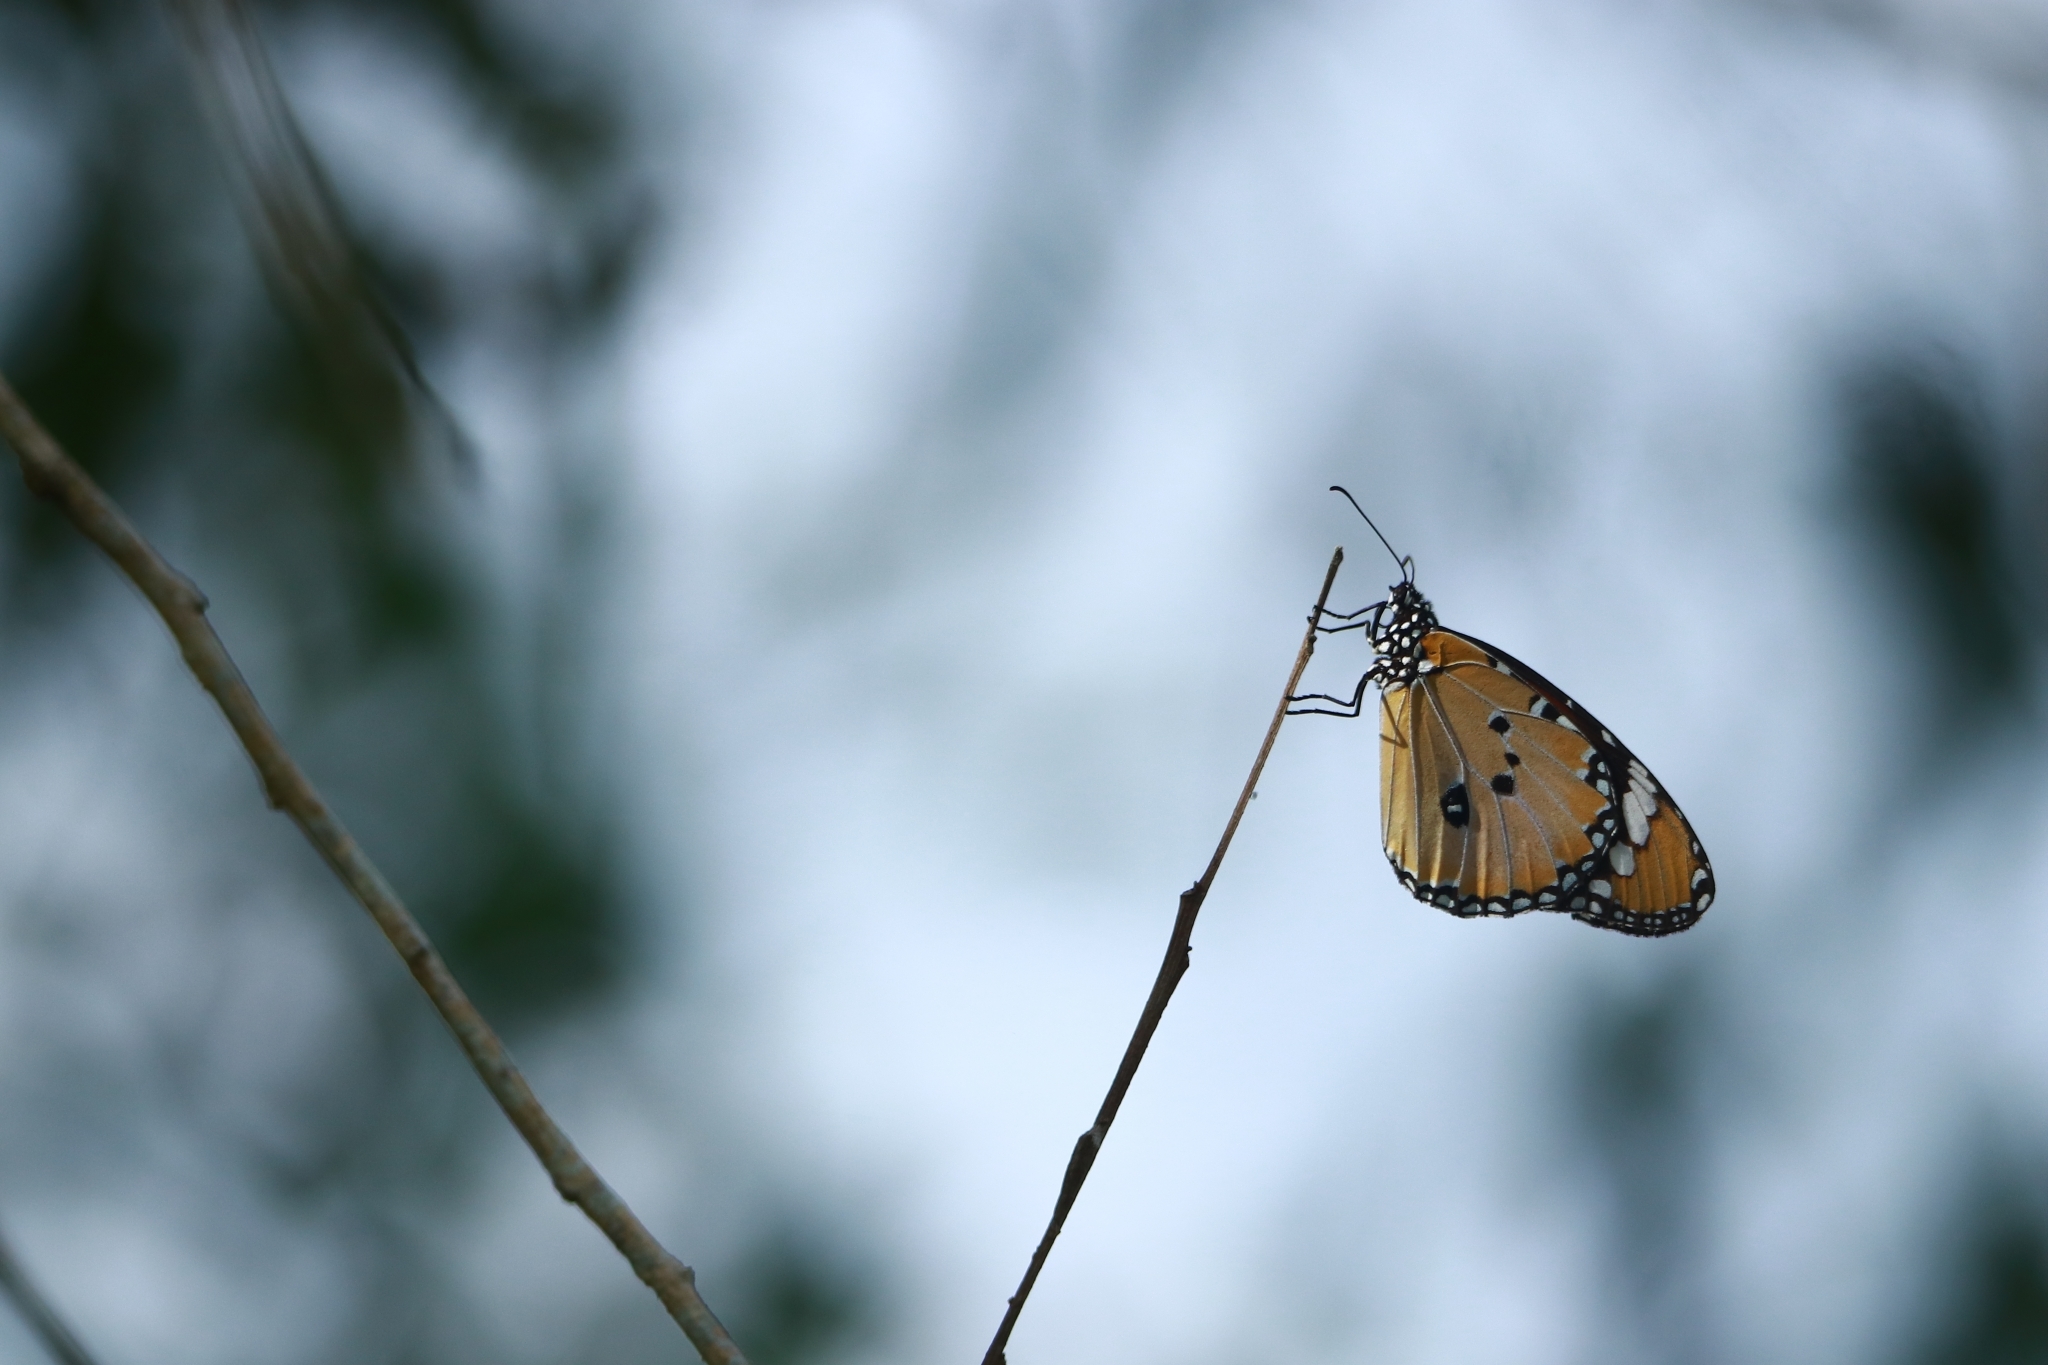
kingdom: Animalia
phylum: Arthropoda
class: Insecta
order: Lepidoptera
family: Nymphalidae
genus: Danaus
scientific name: Danaus chrysippus
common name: Plain tiger
